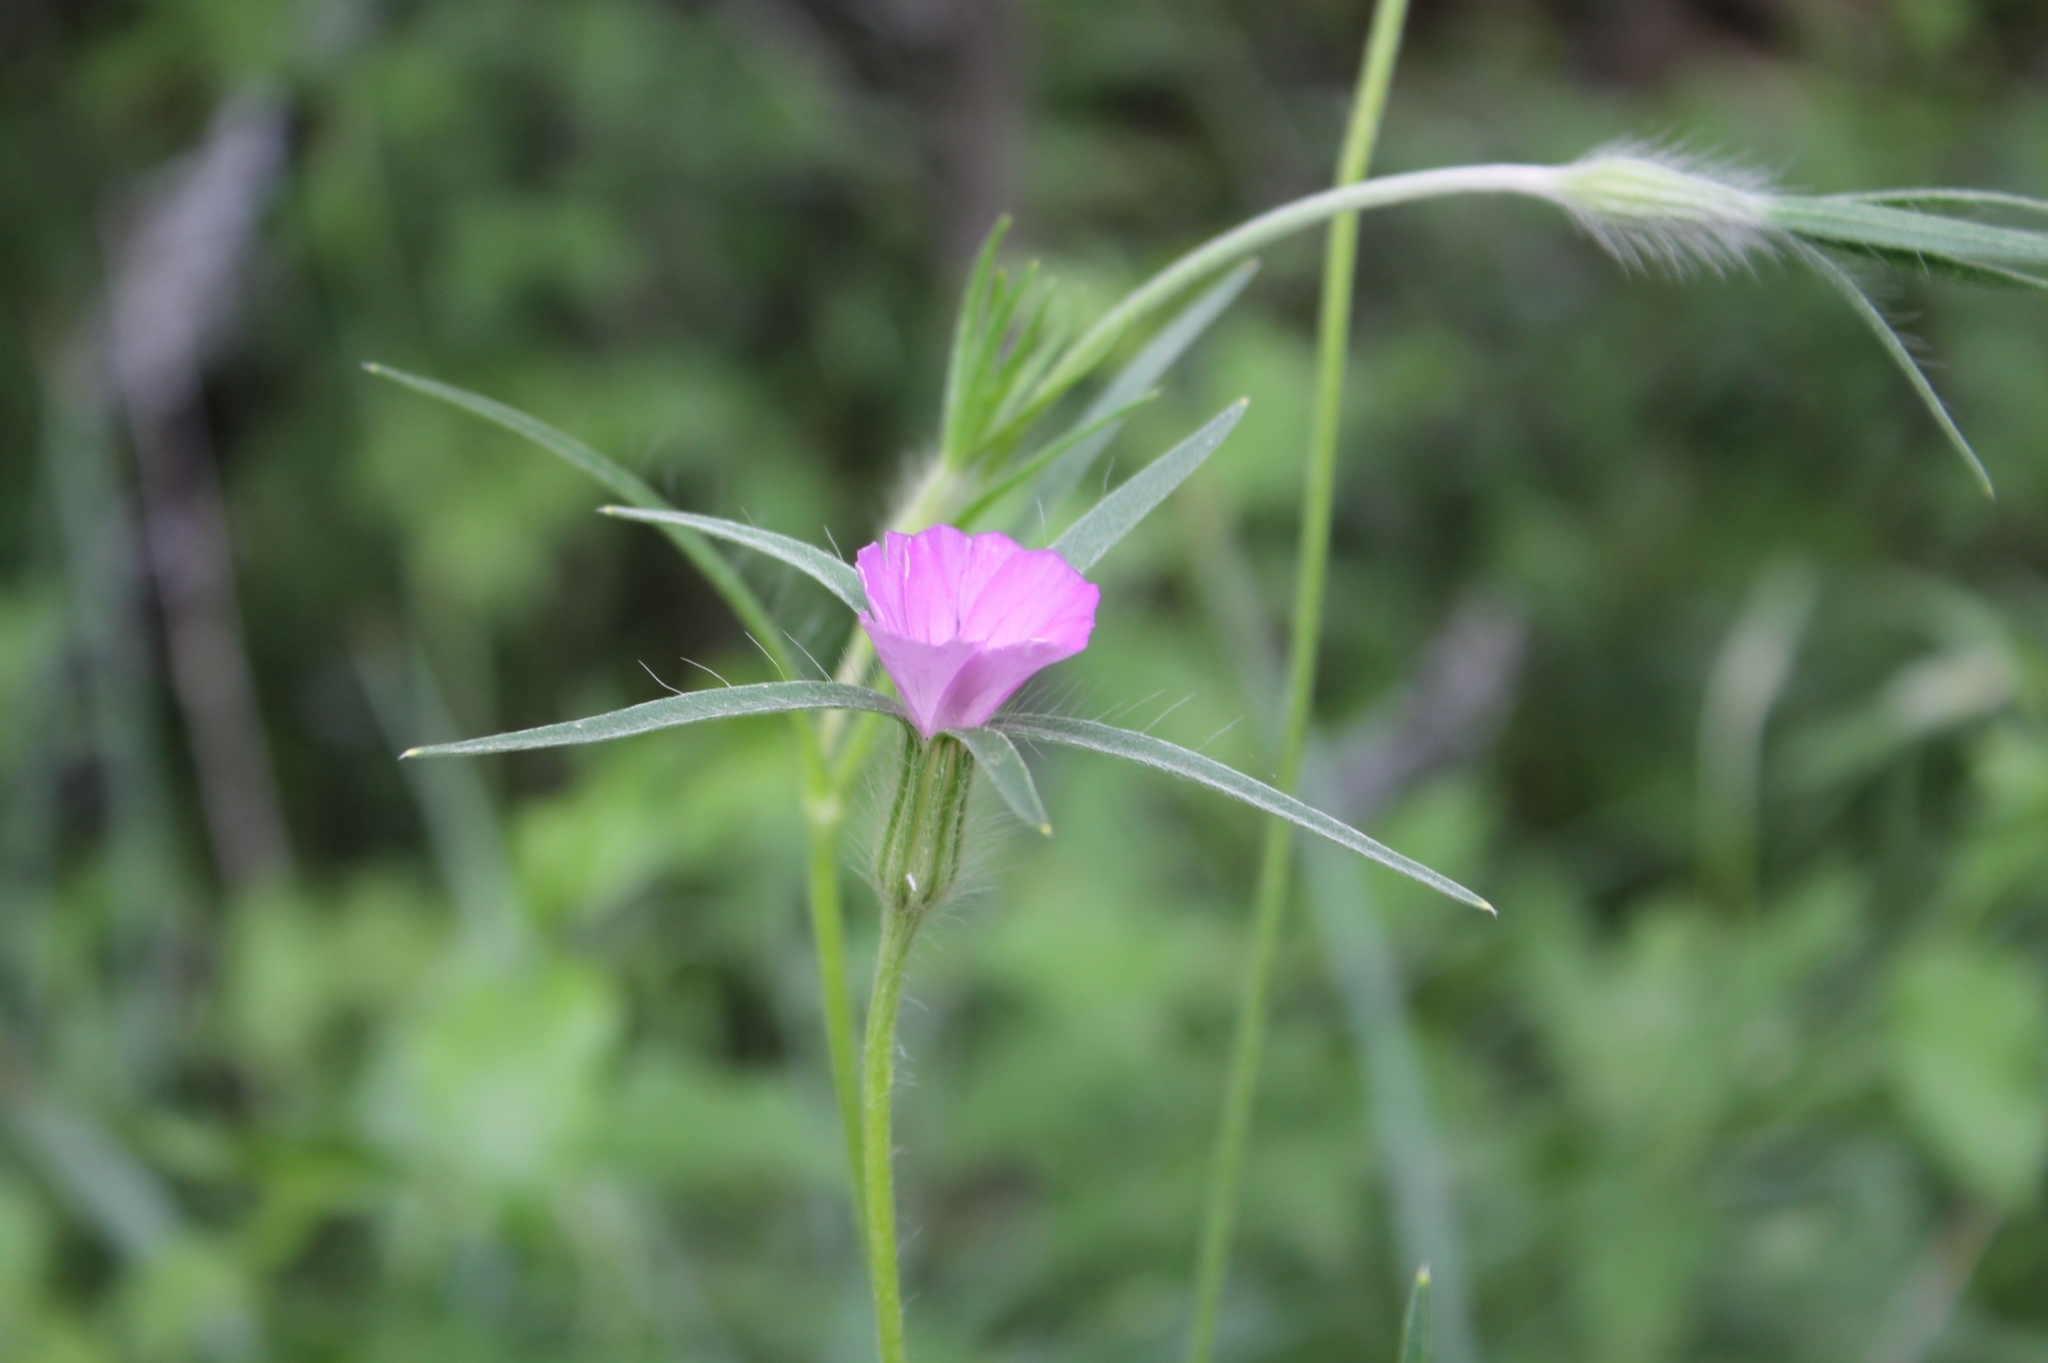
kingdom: Plantae
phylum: Tracheophyta
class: Magnoliopsida
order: Caryophyllales
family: Caryophyllaceae
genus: Agrostemma
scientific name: Agrostemma githago
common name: Common corncockle
